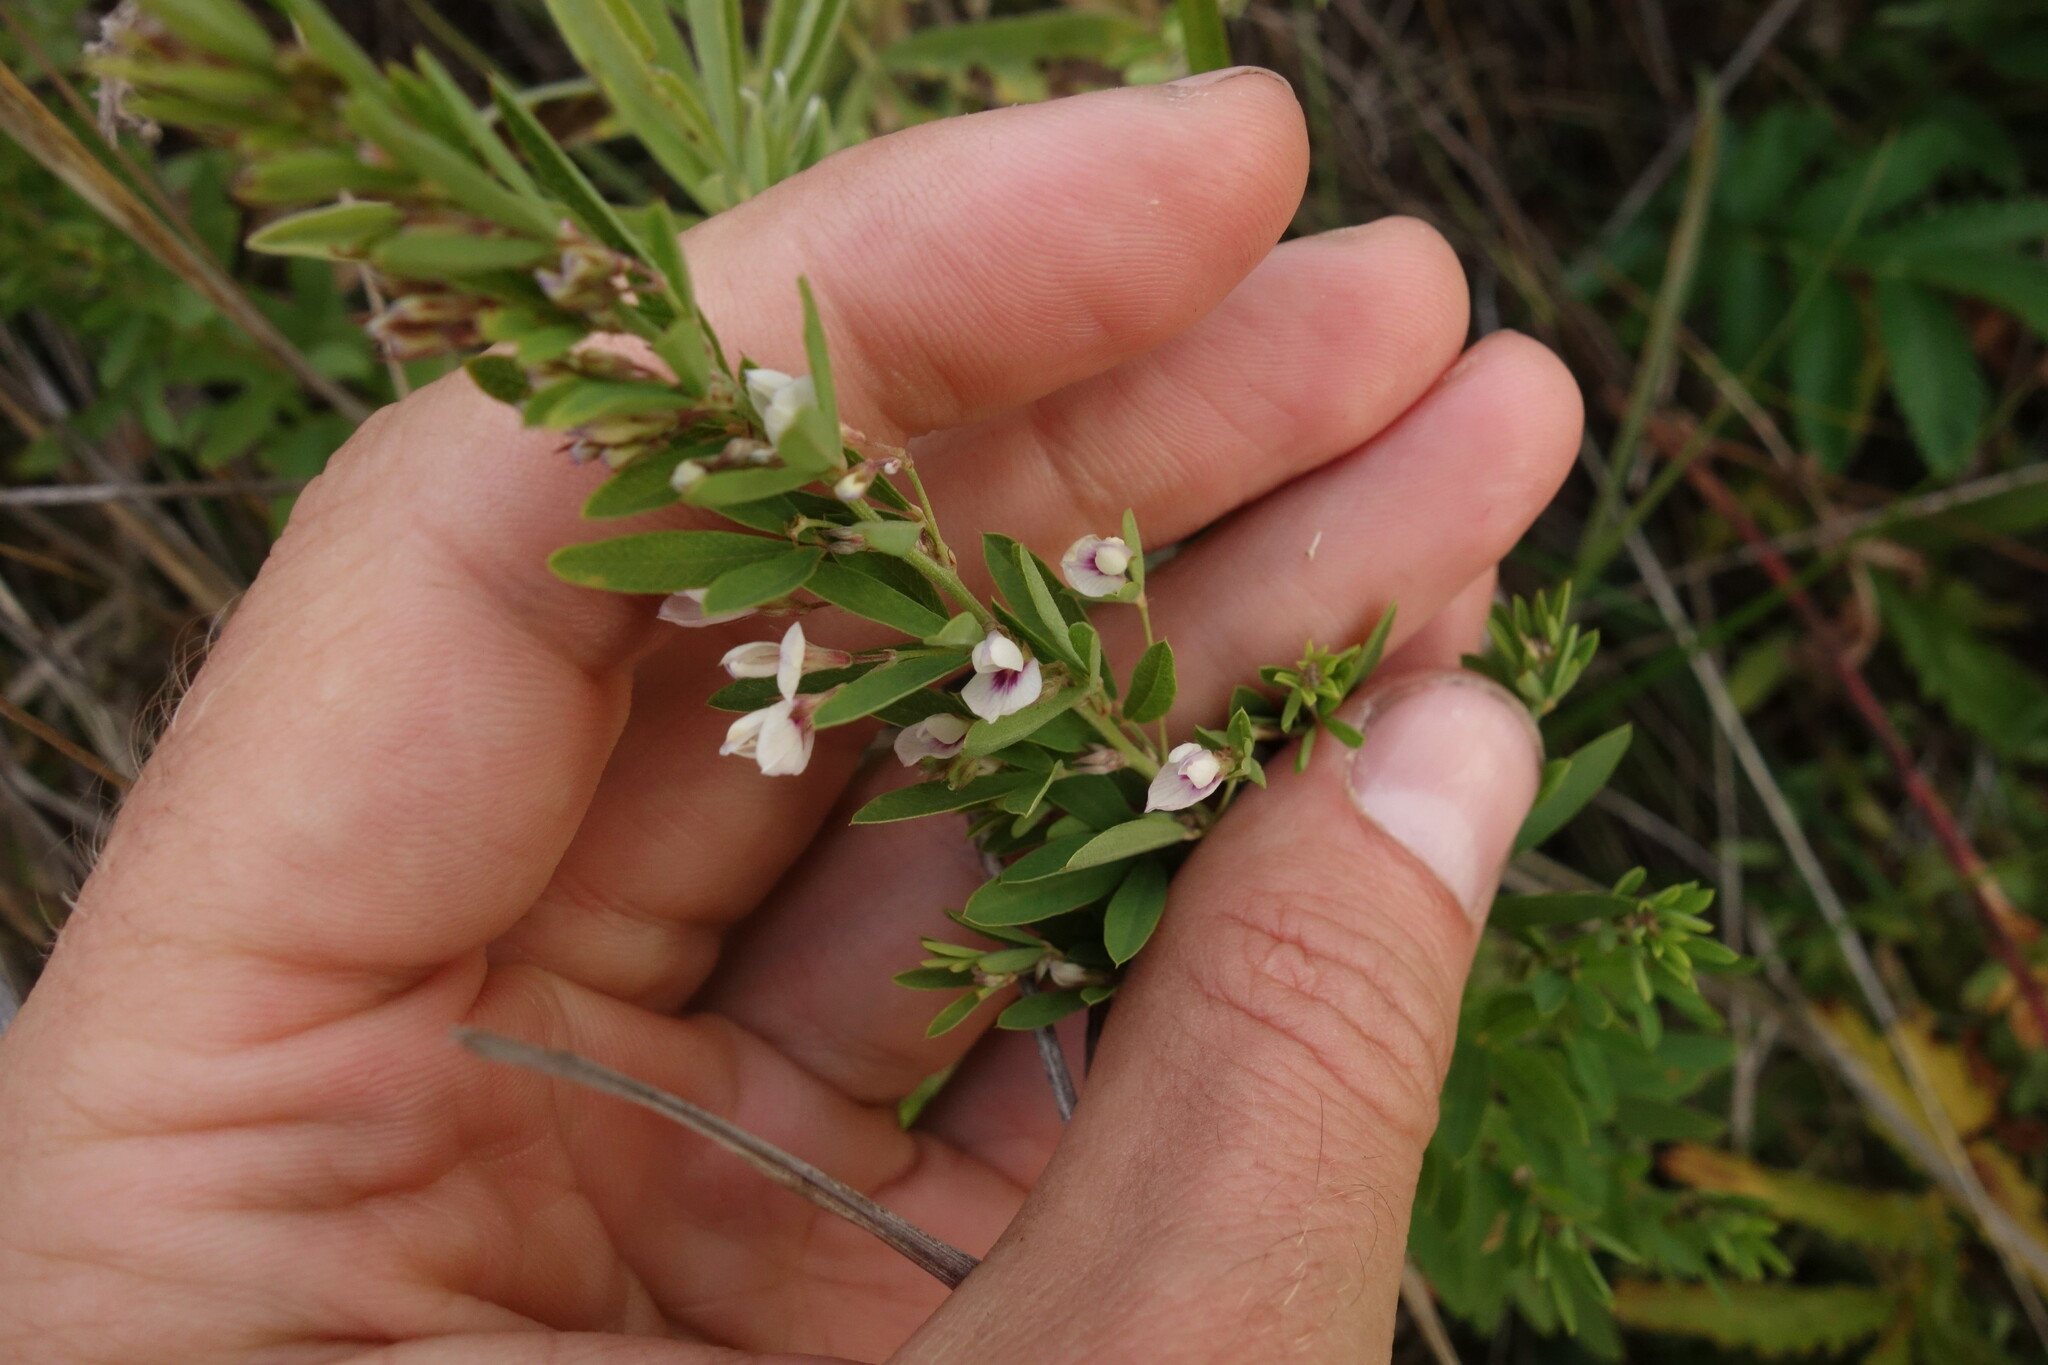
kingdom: Plantae
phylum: Tracheophyta
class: Magnoliopsida
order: Fabales
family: Fabaceae
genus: Lespedeza
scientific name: Lespedeza juncea
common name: Siberian lespedeza
